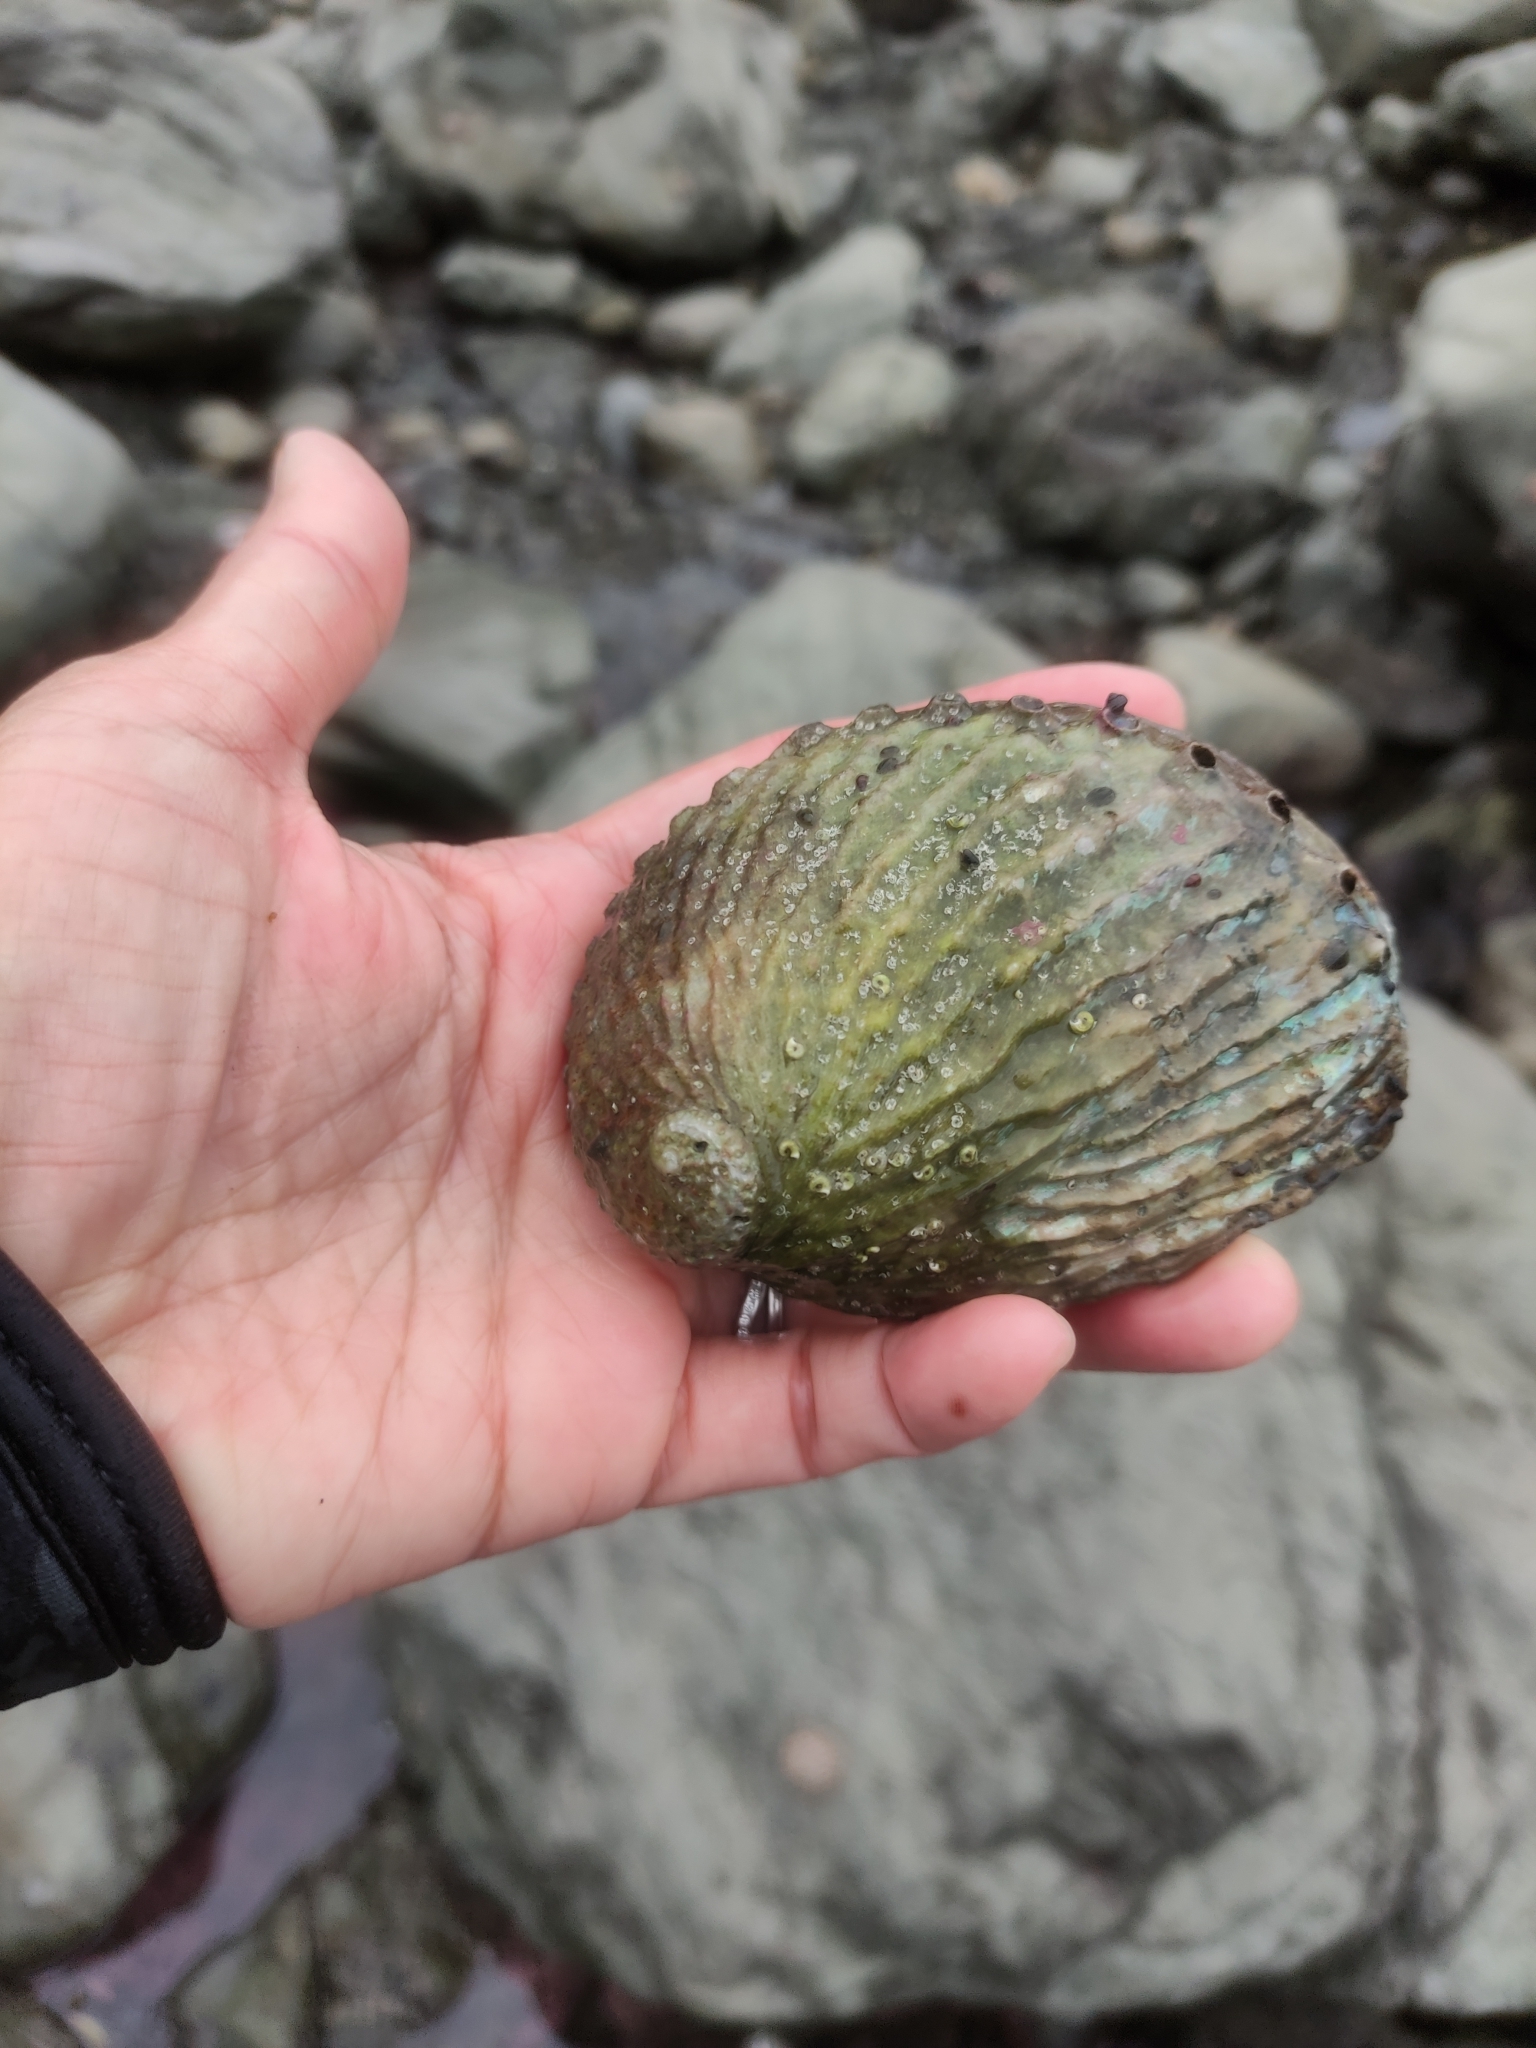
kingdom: Animalia
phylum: Mollusca
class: Gastropoda
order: Lepetellida
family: Haliotidae
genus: Haliotis
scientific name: Haliotis australis
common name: Silver abalone
